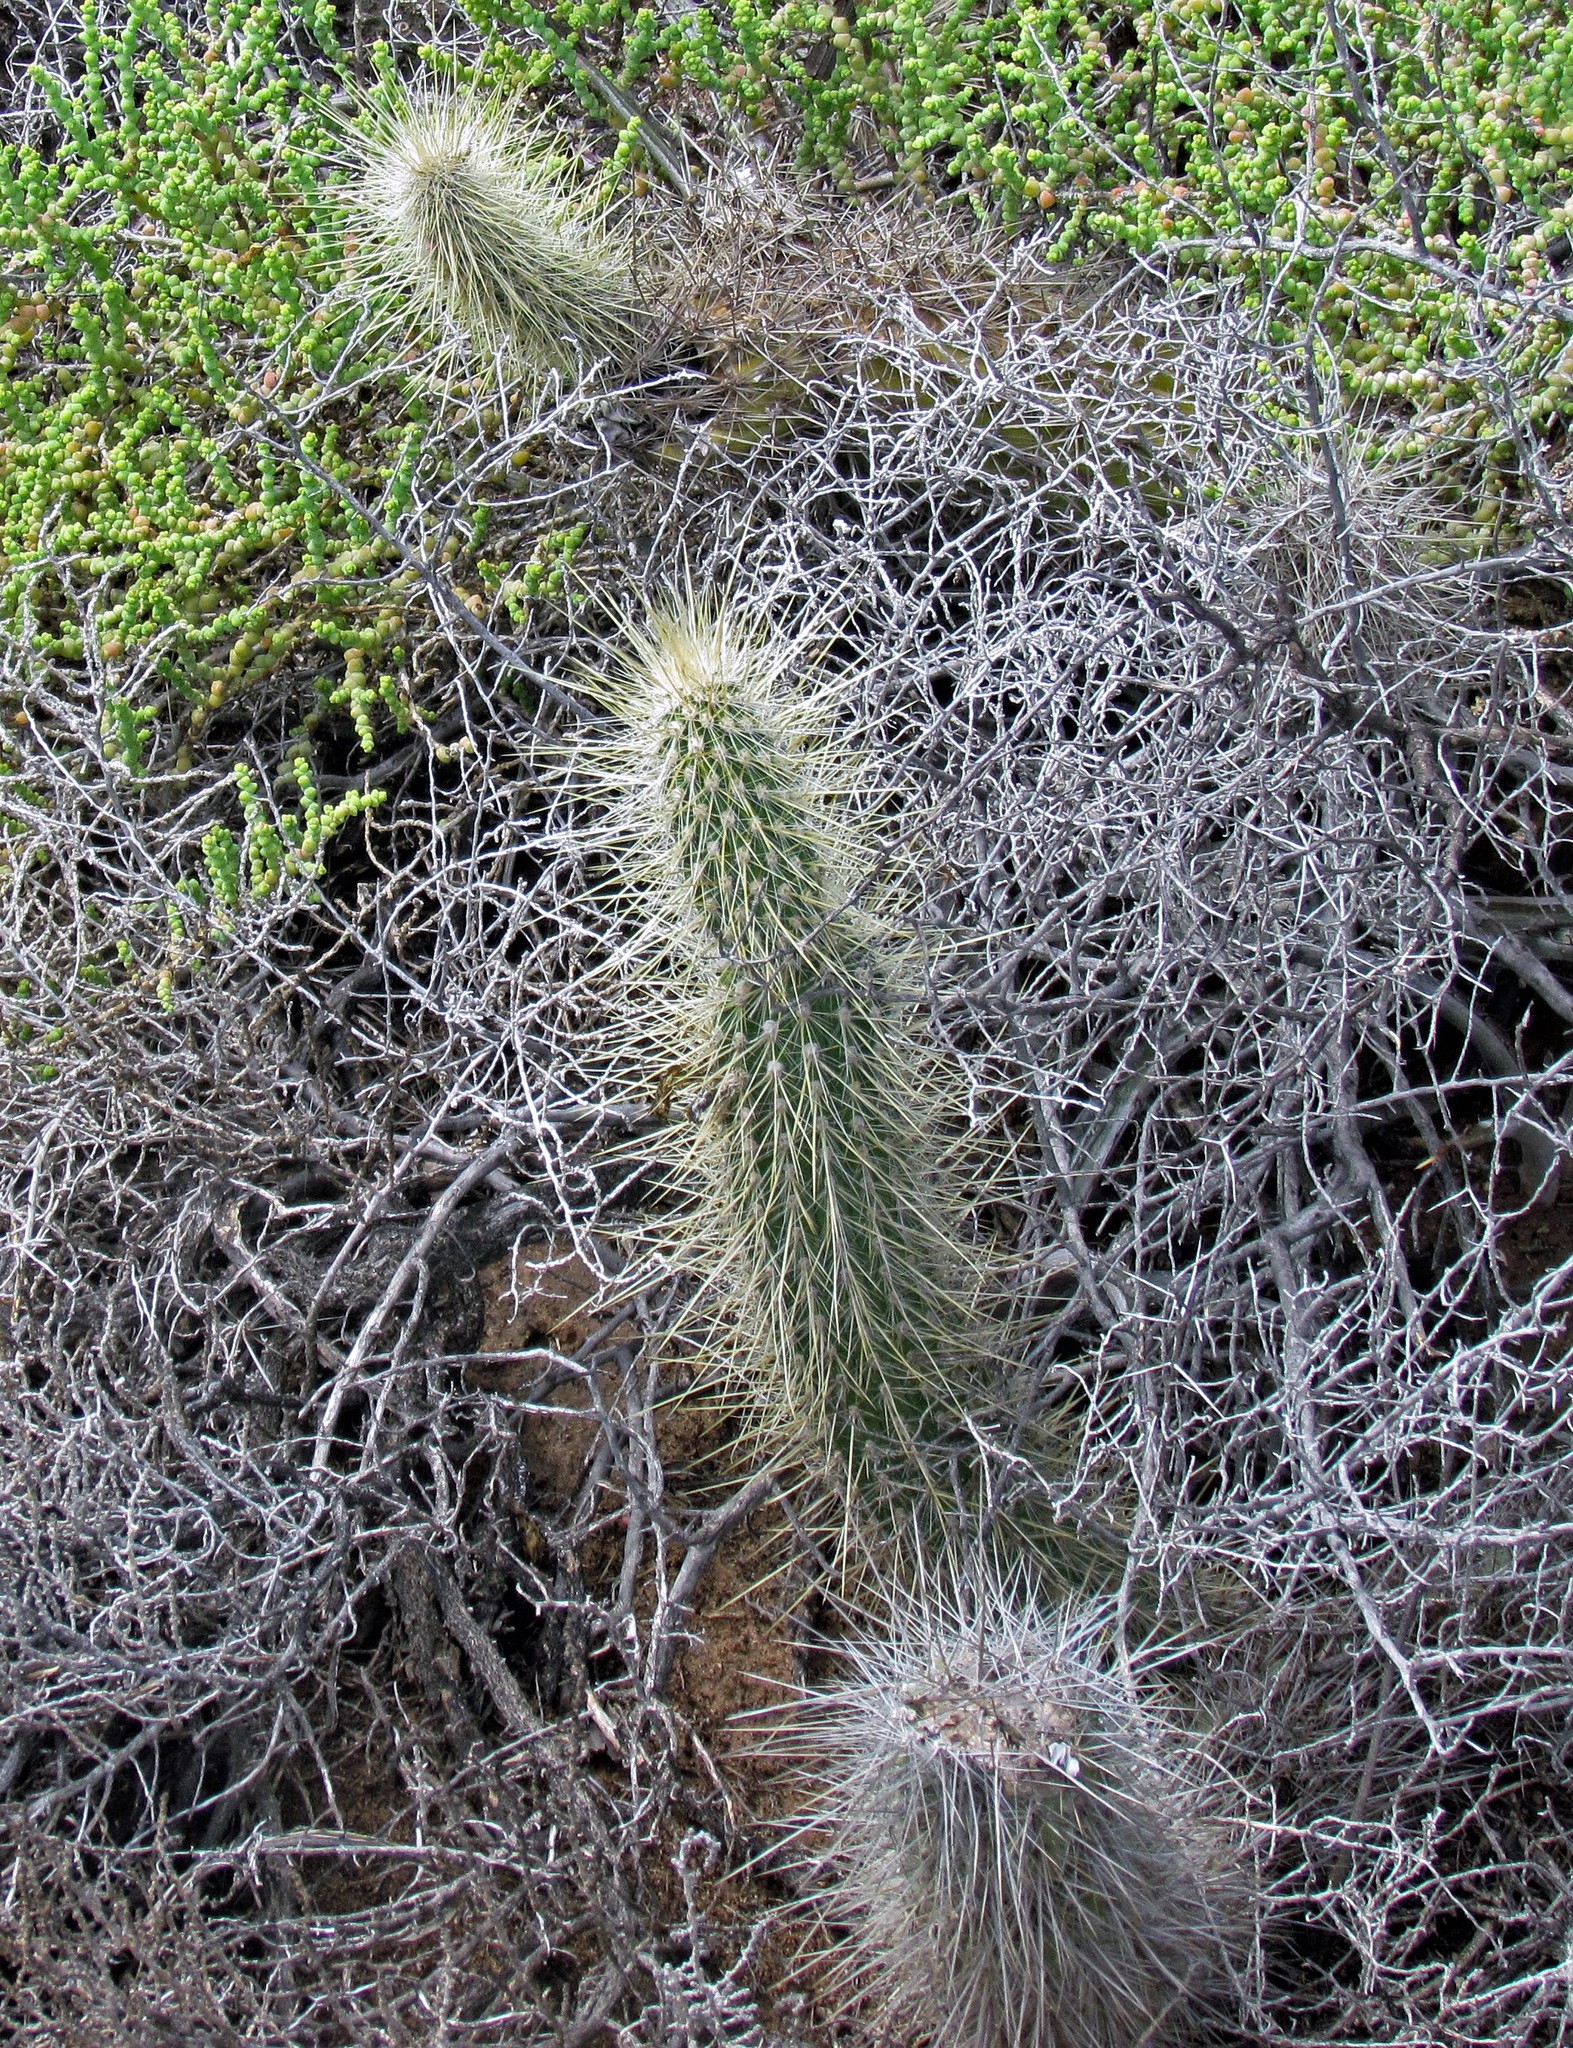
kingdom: Plantae
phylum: Tracheophyta
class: Magnoliopsida
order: Caryophyllales
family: Cactaceae
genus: Cleistocactus
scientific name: Cleistocactus baumannii
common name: Scarlet-bugler
